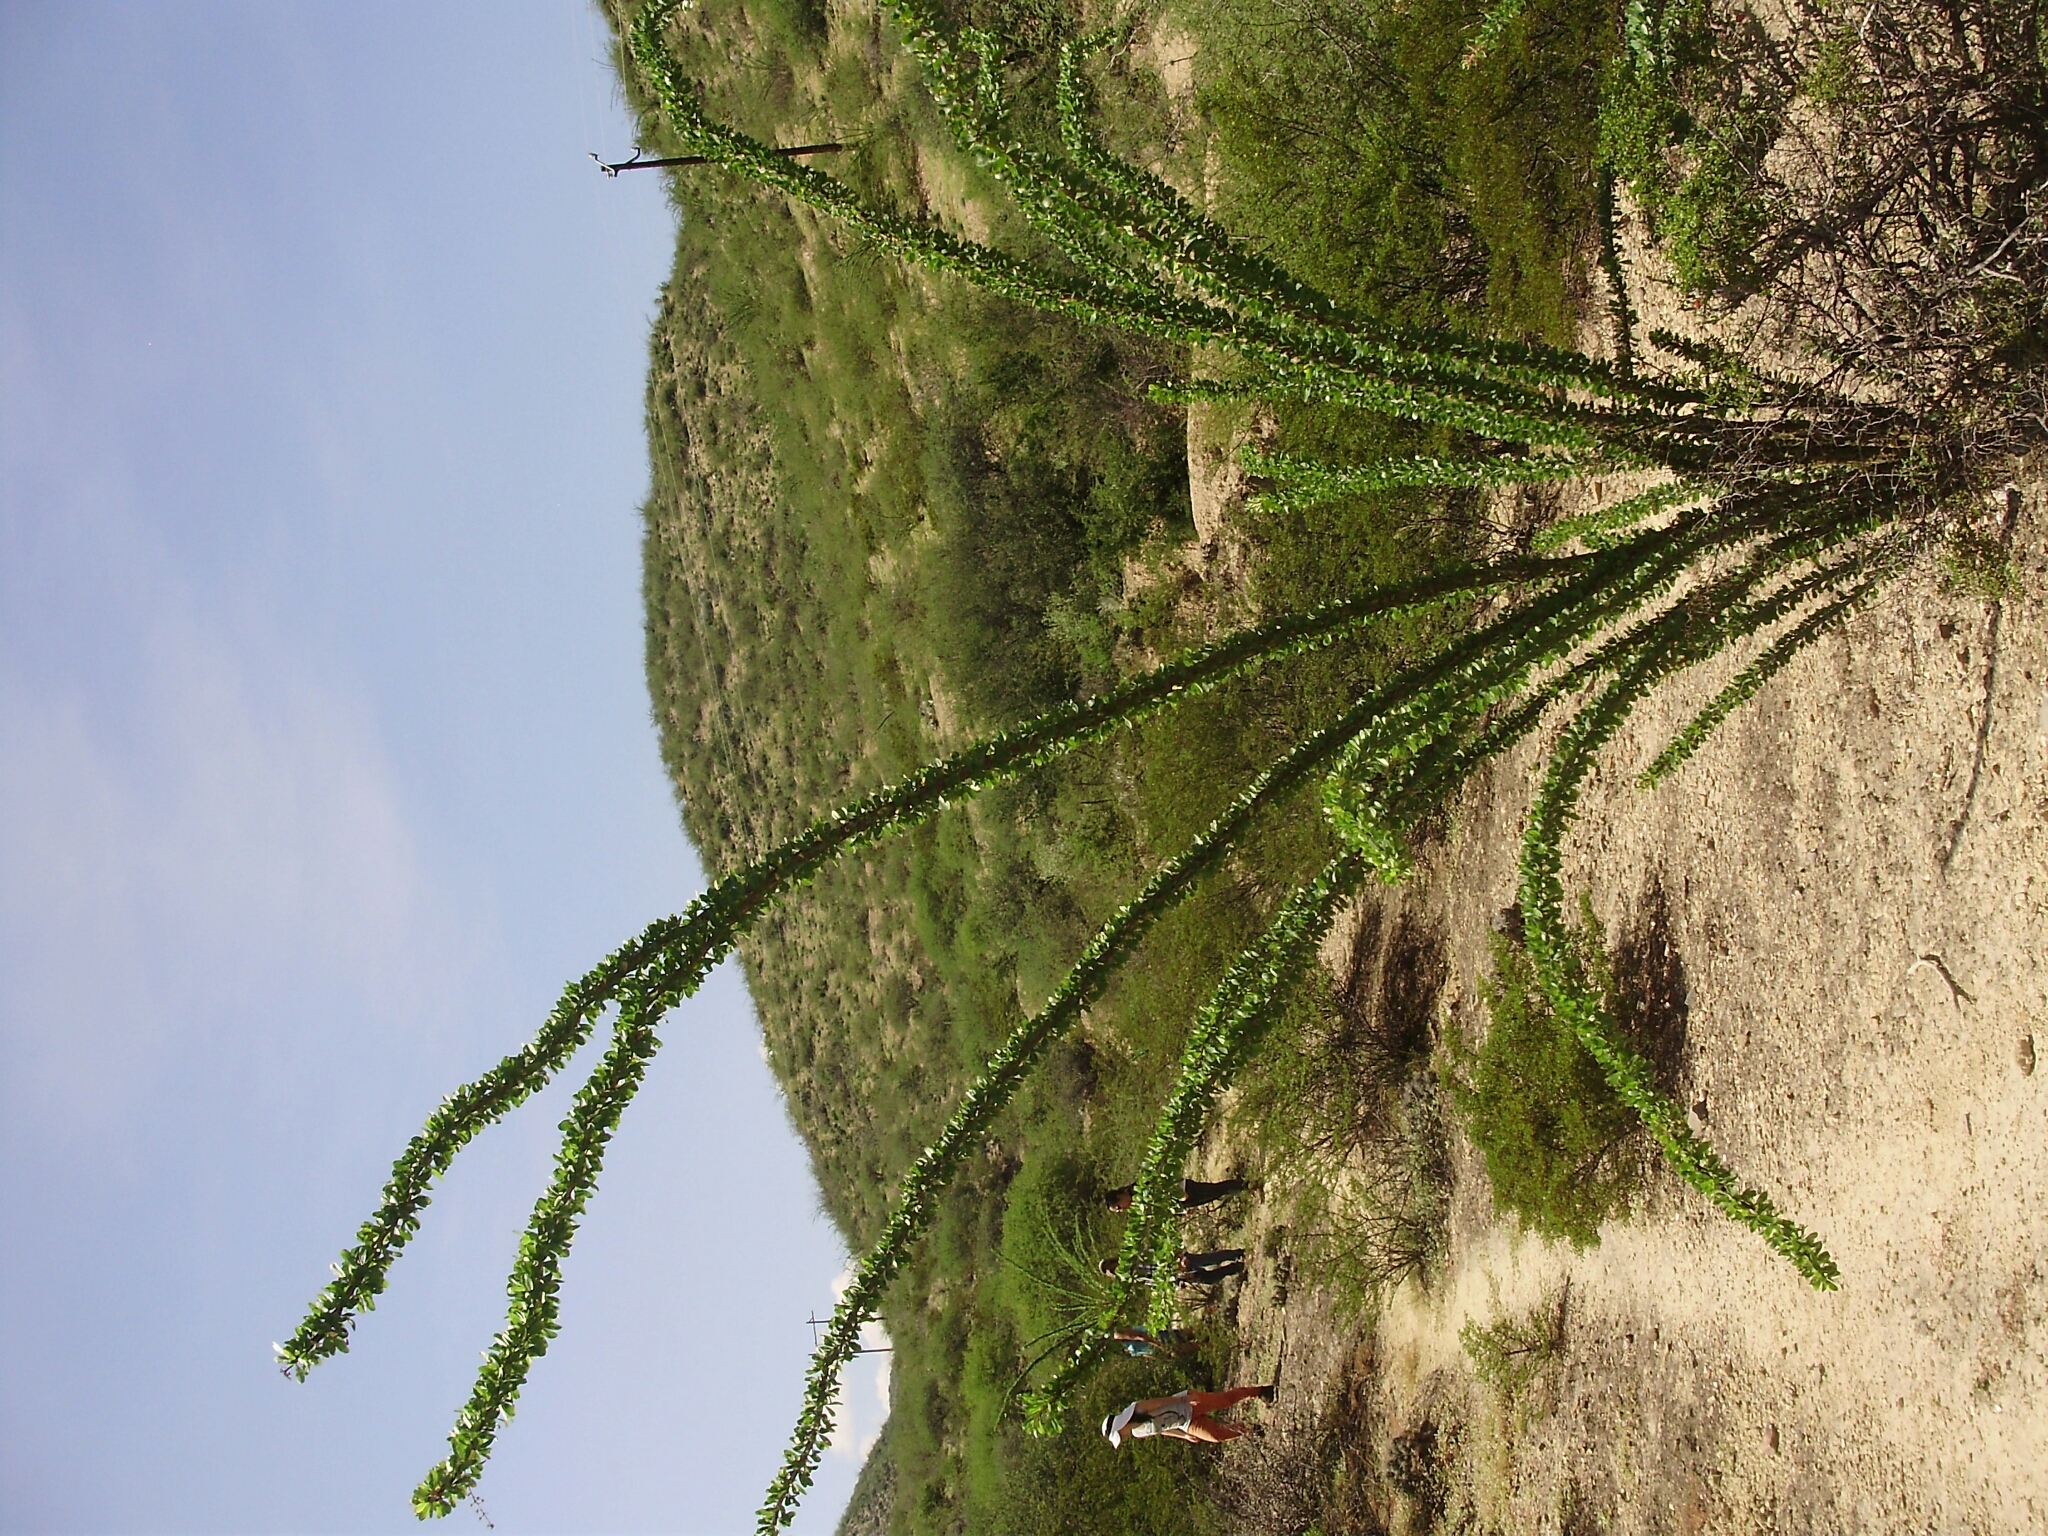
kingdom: Plantae
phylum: Tracheophyta
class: Magnoliopsida
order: Ericales
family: Fouquieriaceae
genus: Fouquieria
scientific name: Fouquieria splendens
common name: Vine-cactus
